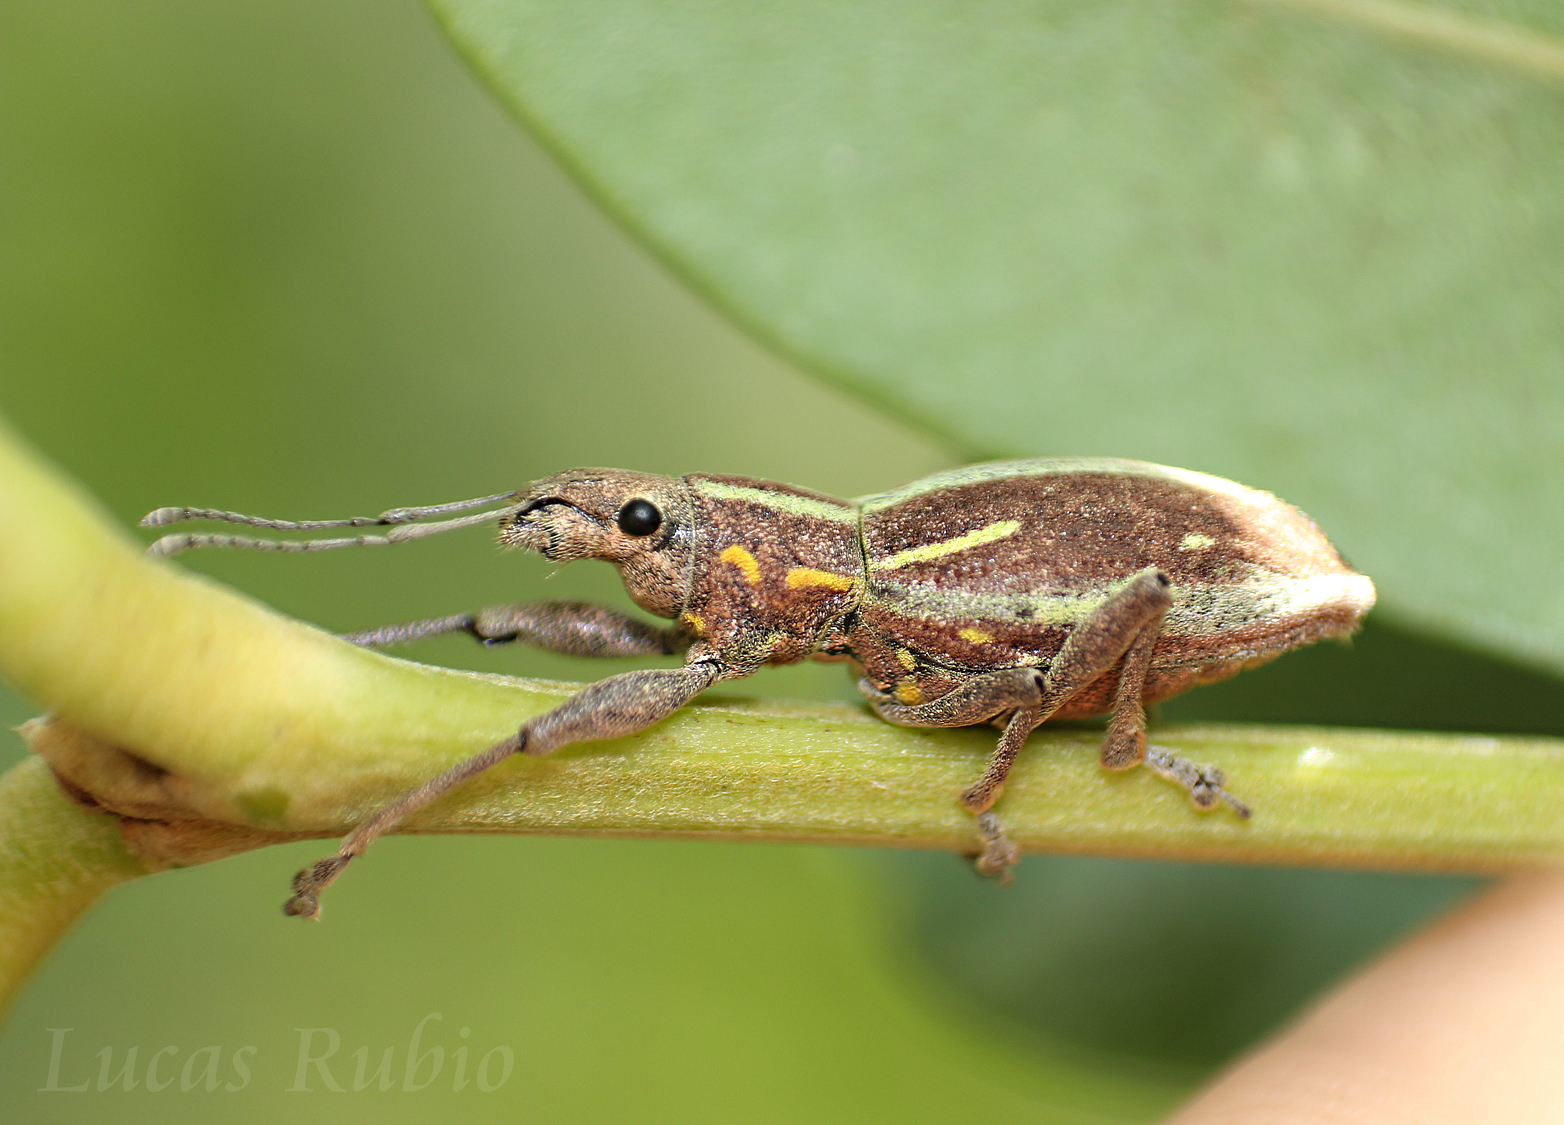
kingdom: Animalia
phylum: Arthropoda
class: Insecta
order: Coleoptera
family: Curculionidae
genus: Naupactus
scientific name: Naupactus xanthographus
